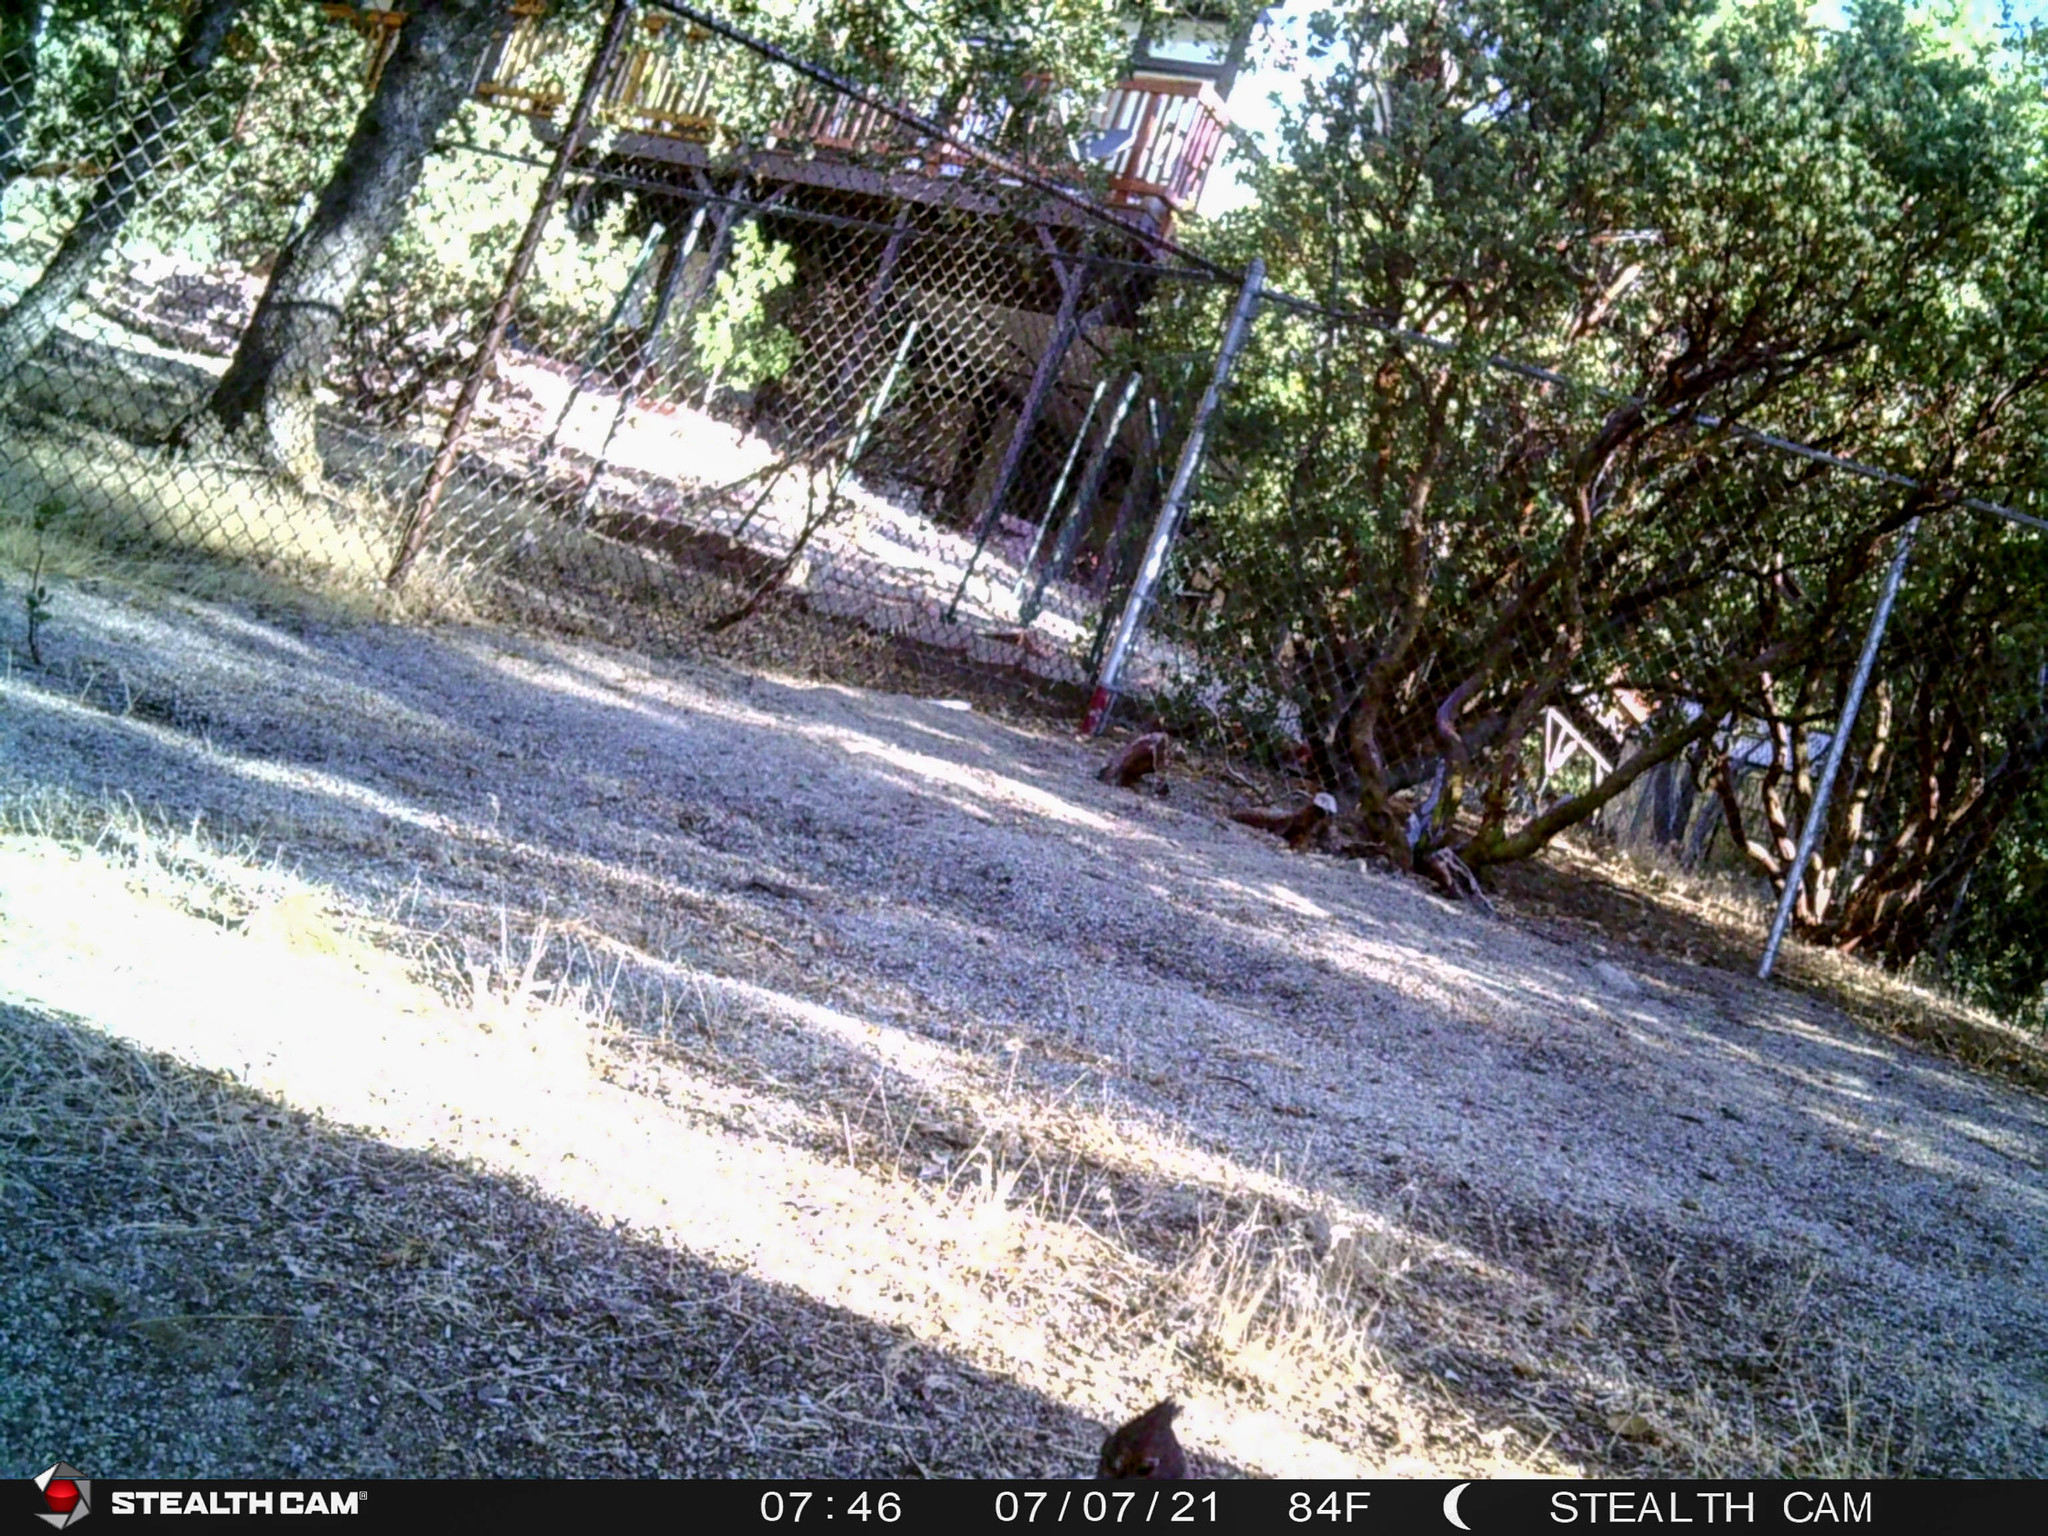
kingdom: Animalia
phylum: Chordata
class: Aves
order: Passeriformes
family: Corvidae
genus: Cyanocitta
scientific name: Cyanocitta stelleri
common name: Steller's jay
